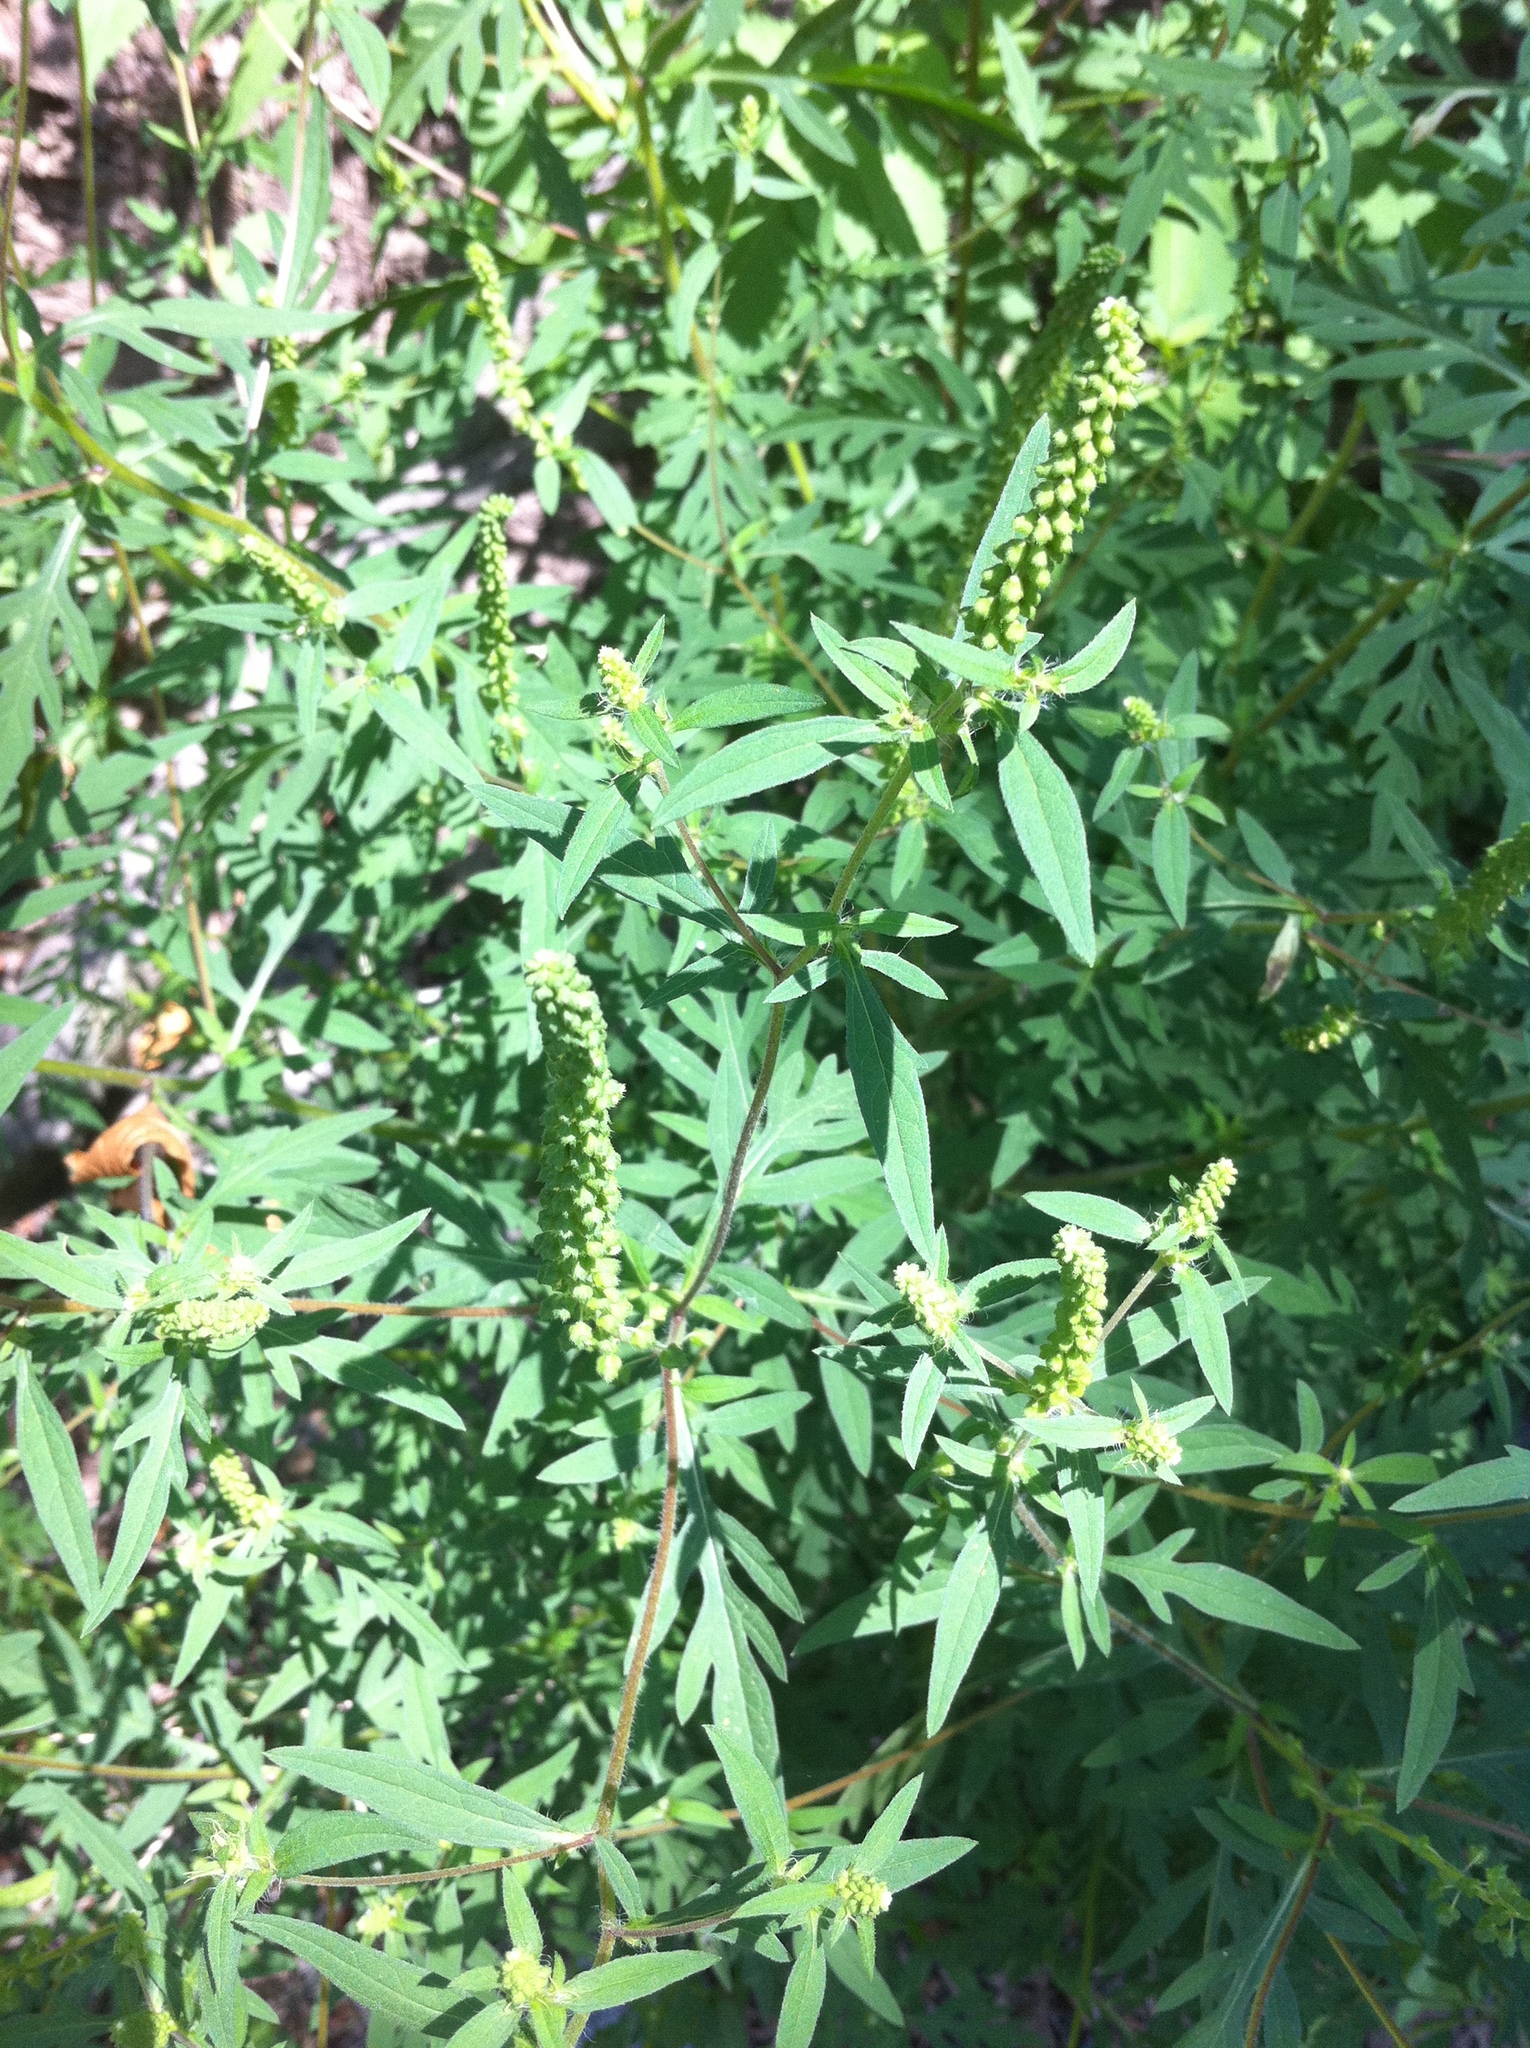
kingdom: Plantae
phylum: Tracheophyta
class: Magnoliopsida
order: Asterales
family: Asteraceae
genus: Ambrosia
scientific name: Ambrosia artemisiifolia
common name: Annual ragweed
